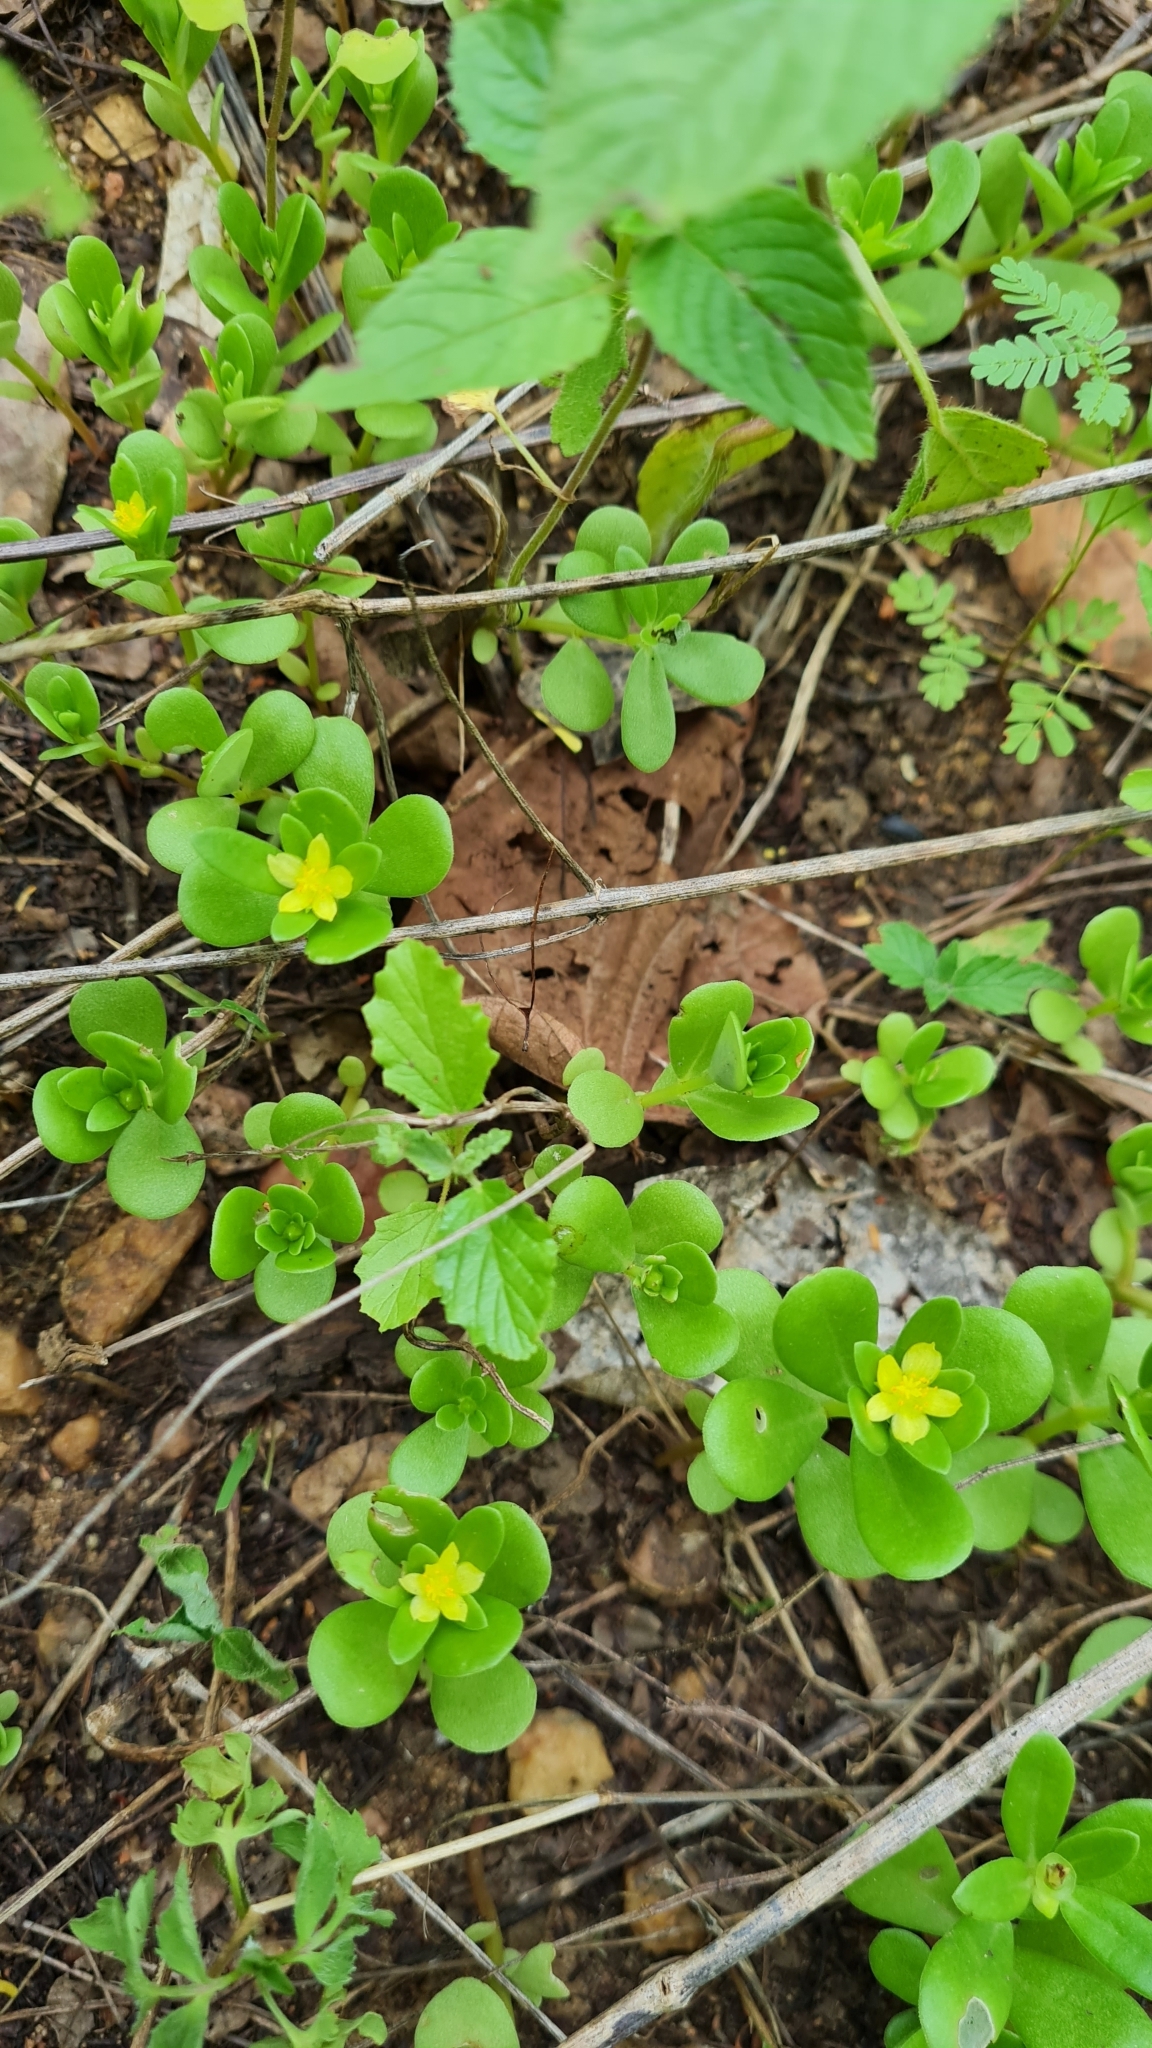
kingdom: Plantae
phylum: Tracheophyta
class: Magnoliopsida
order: Caryophyllales
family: Portulacaceae
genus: Portulaca
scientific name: Portulaca umbraticola
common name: Wingpod purslane
